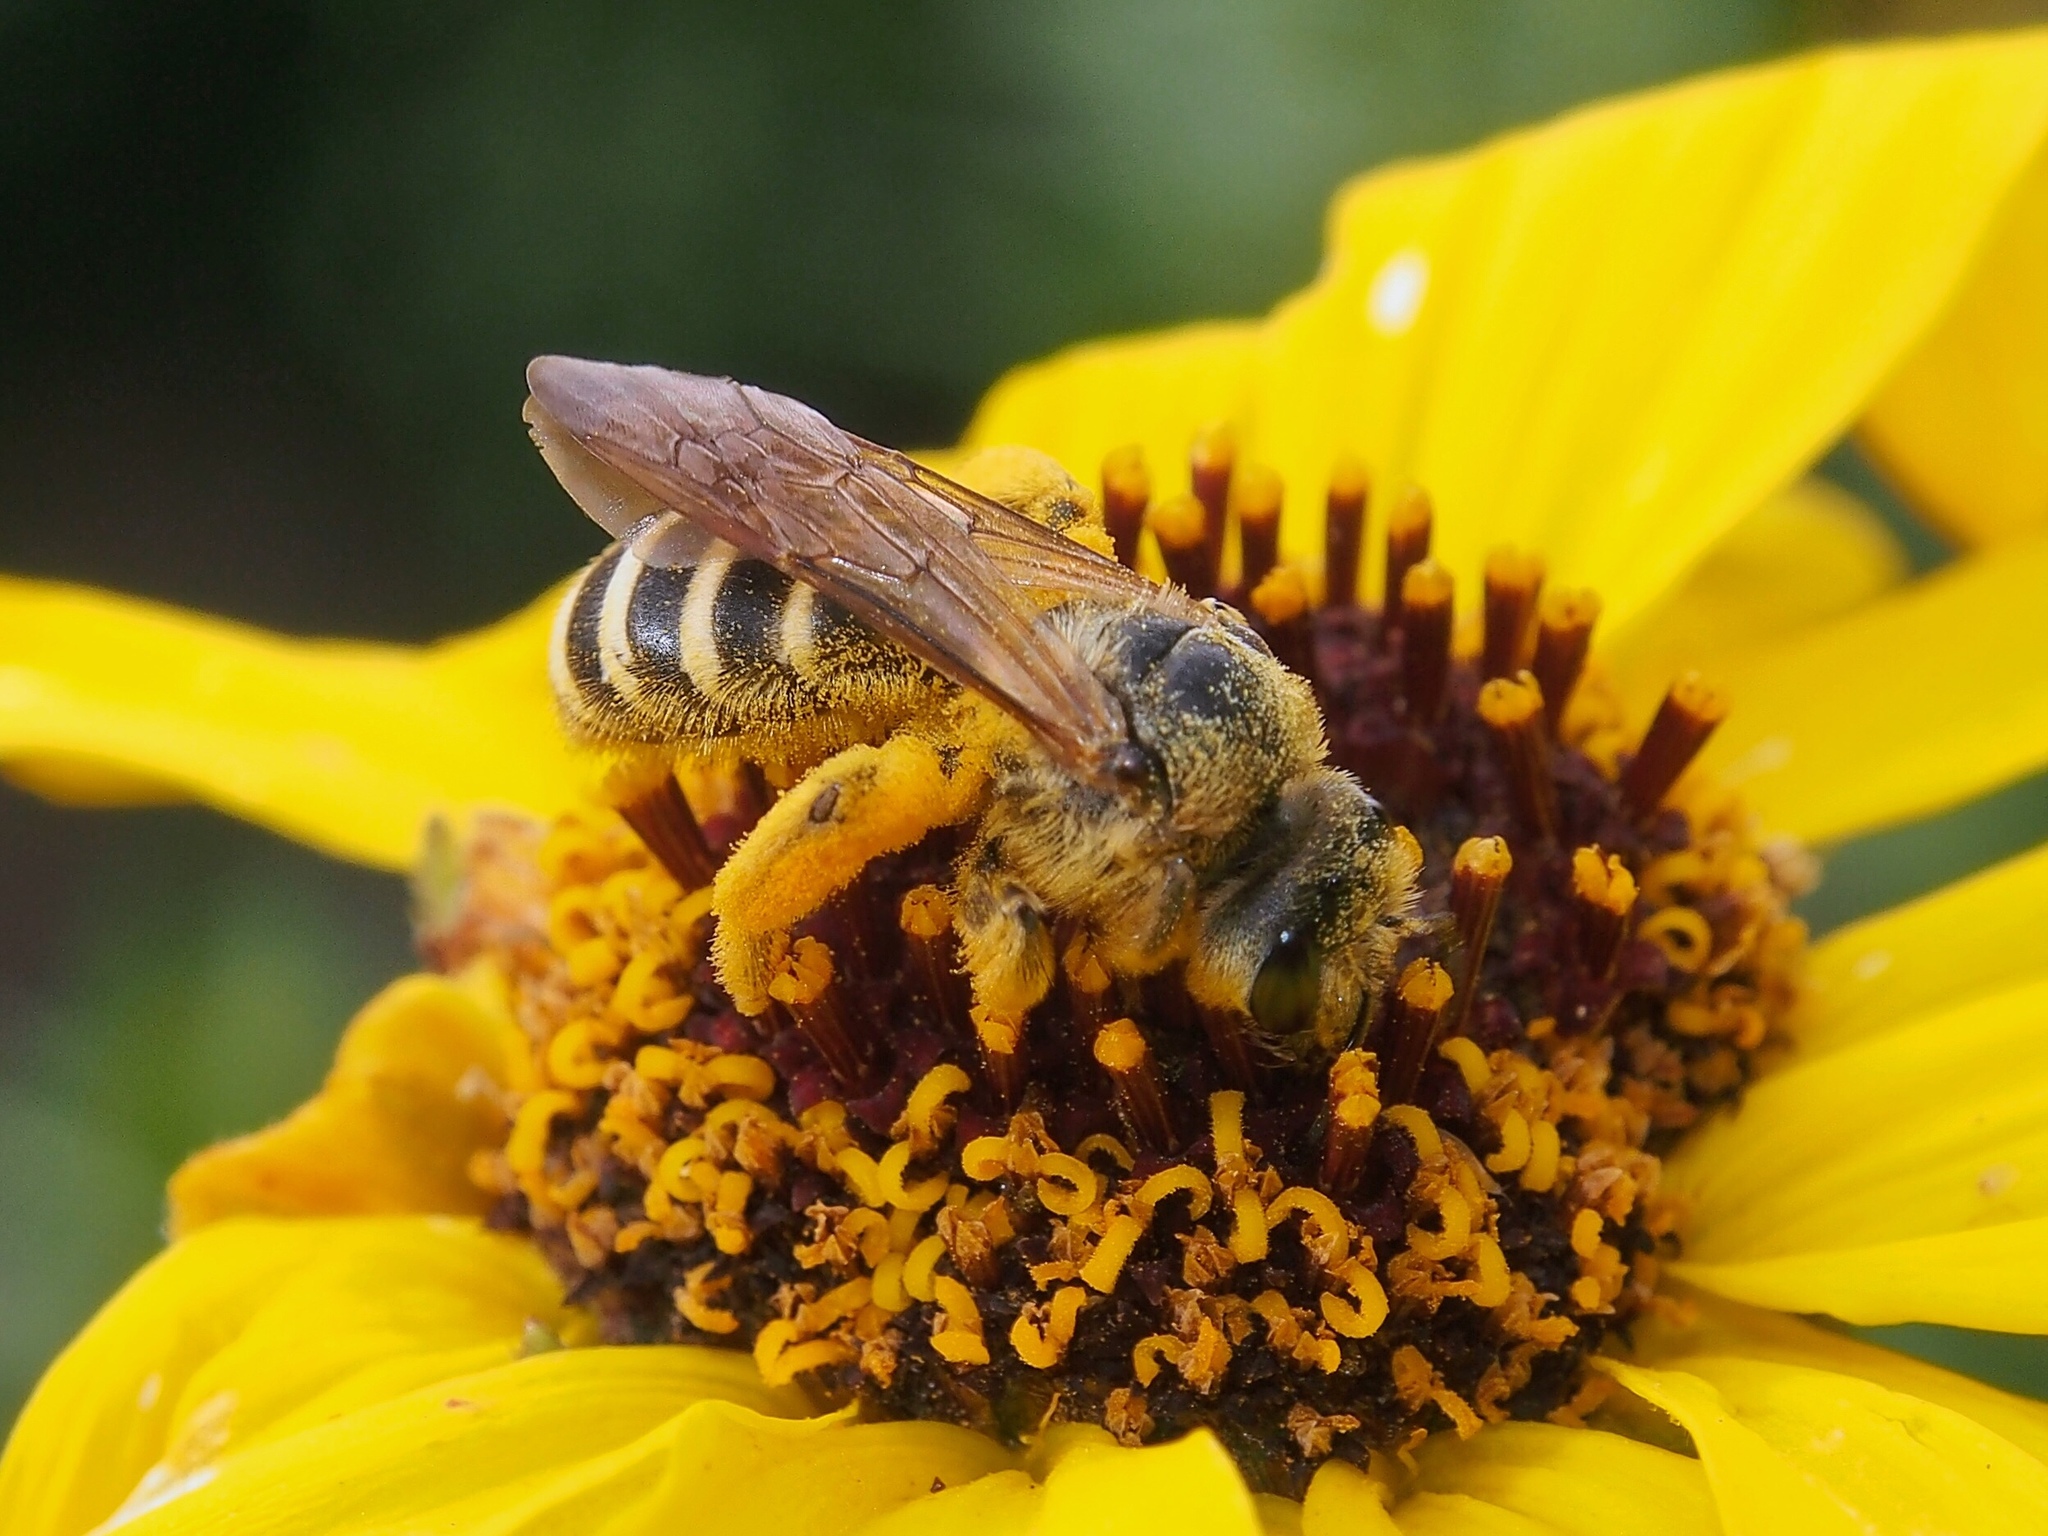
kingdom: Animalia
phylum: Arthropoda
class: Insecta
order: Hymenoptera
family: Halictidae
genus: Halictus
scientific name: Halictus farinosus
